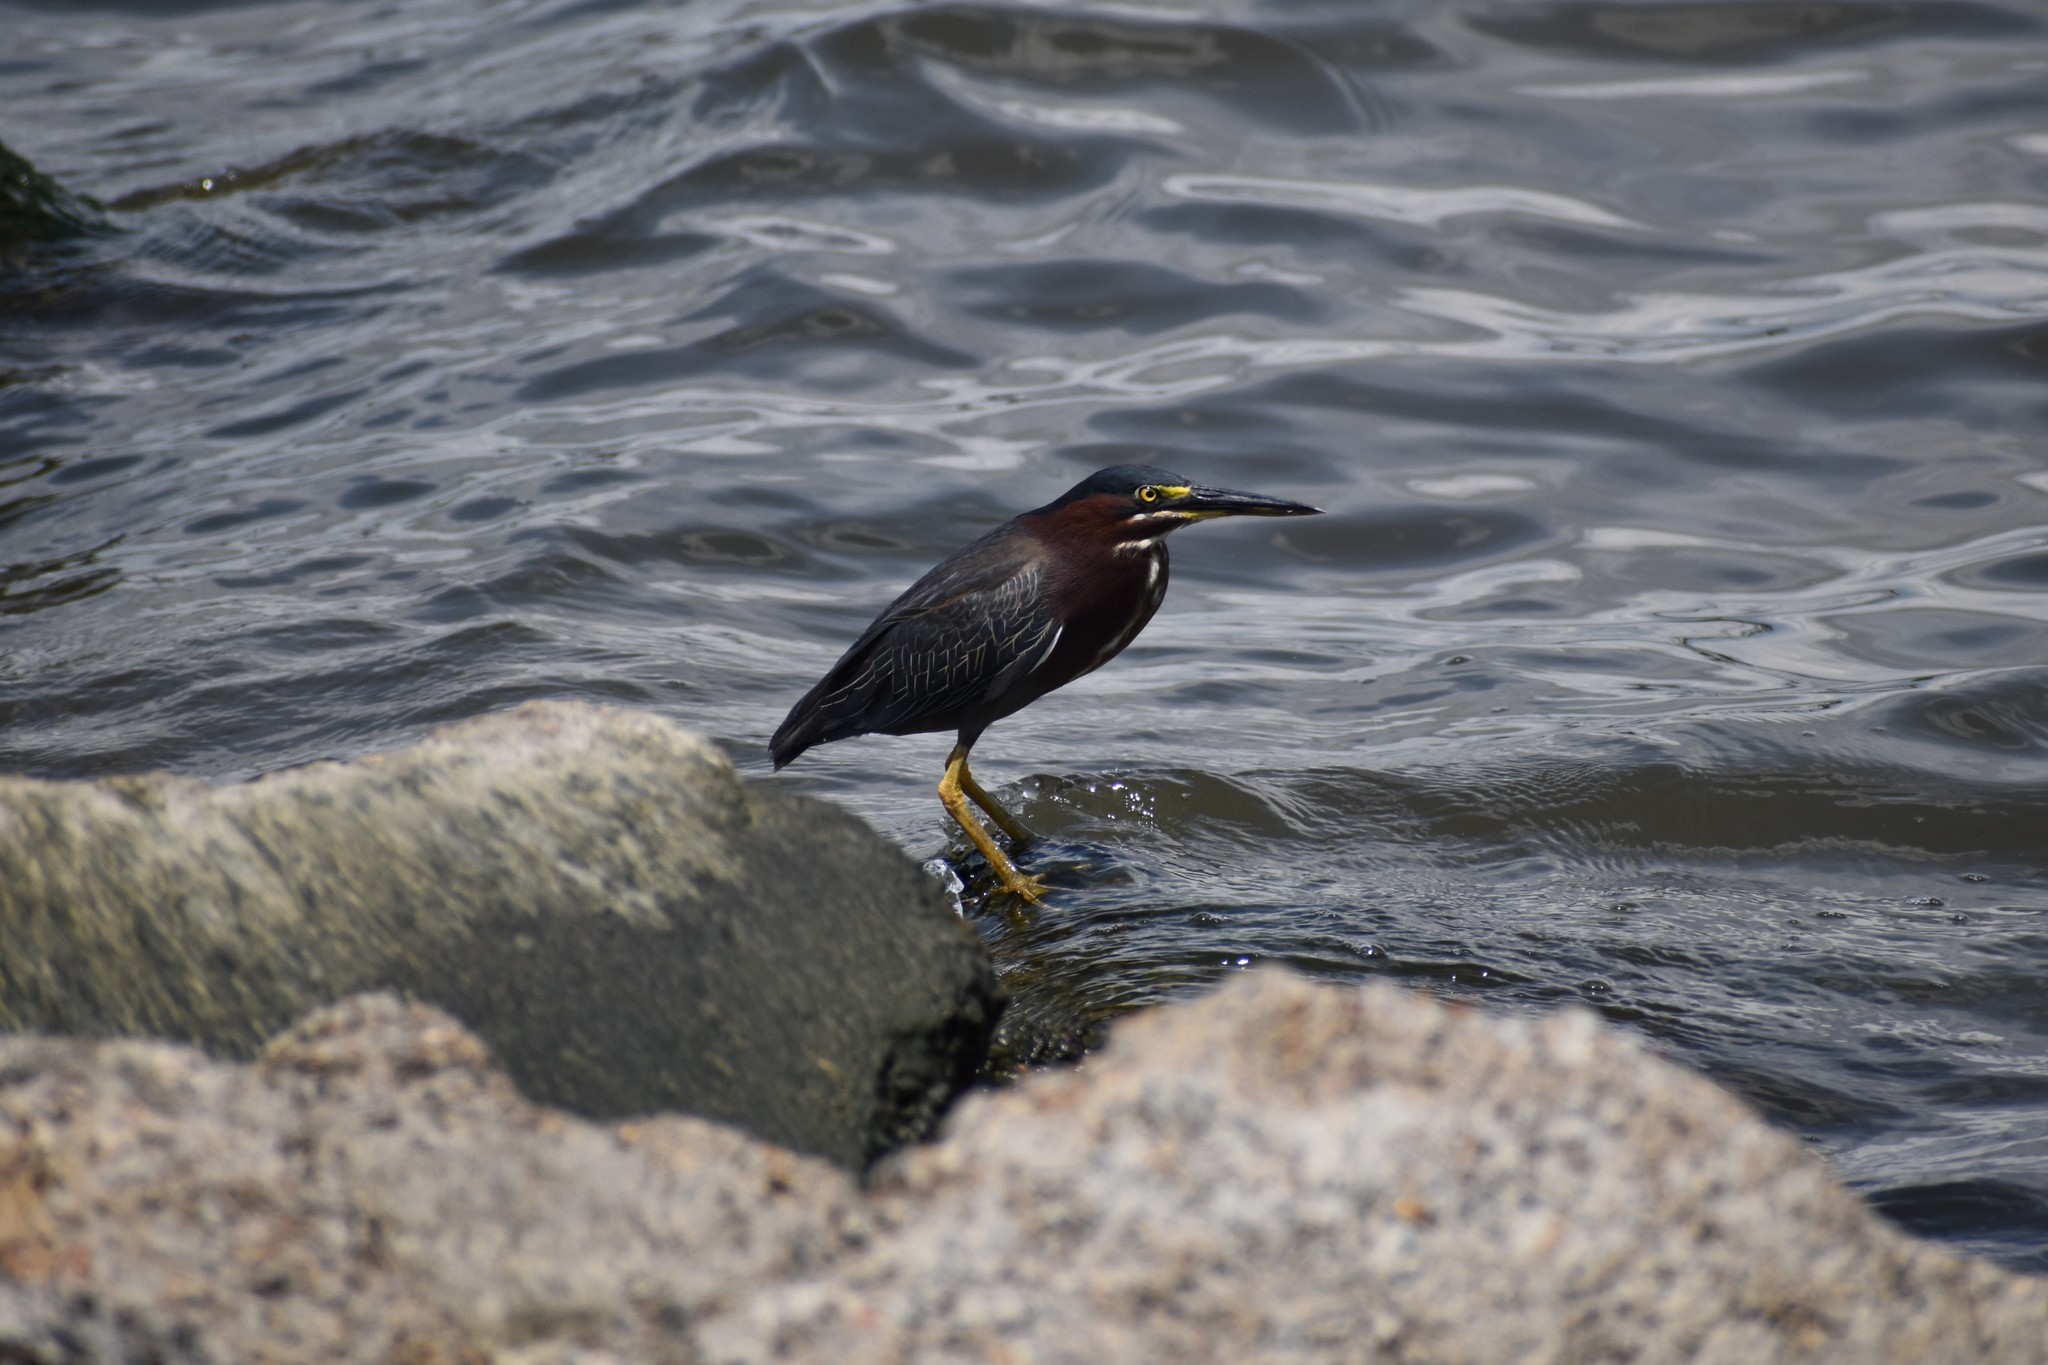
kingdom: Animalia
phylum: Chordata
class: Aves
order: Pelecaniformes
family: Ardeidae
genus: Butorides
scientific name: Butorides virescens
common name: Green heron
